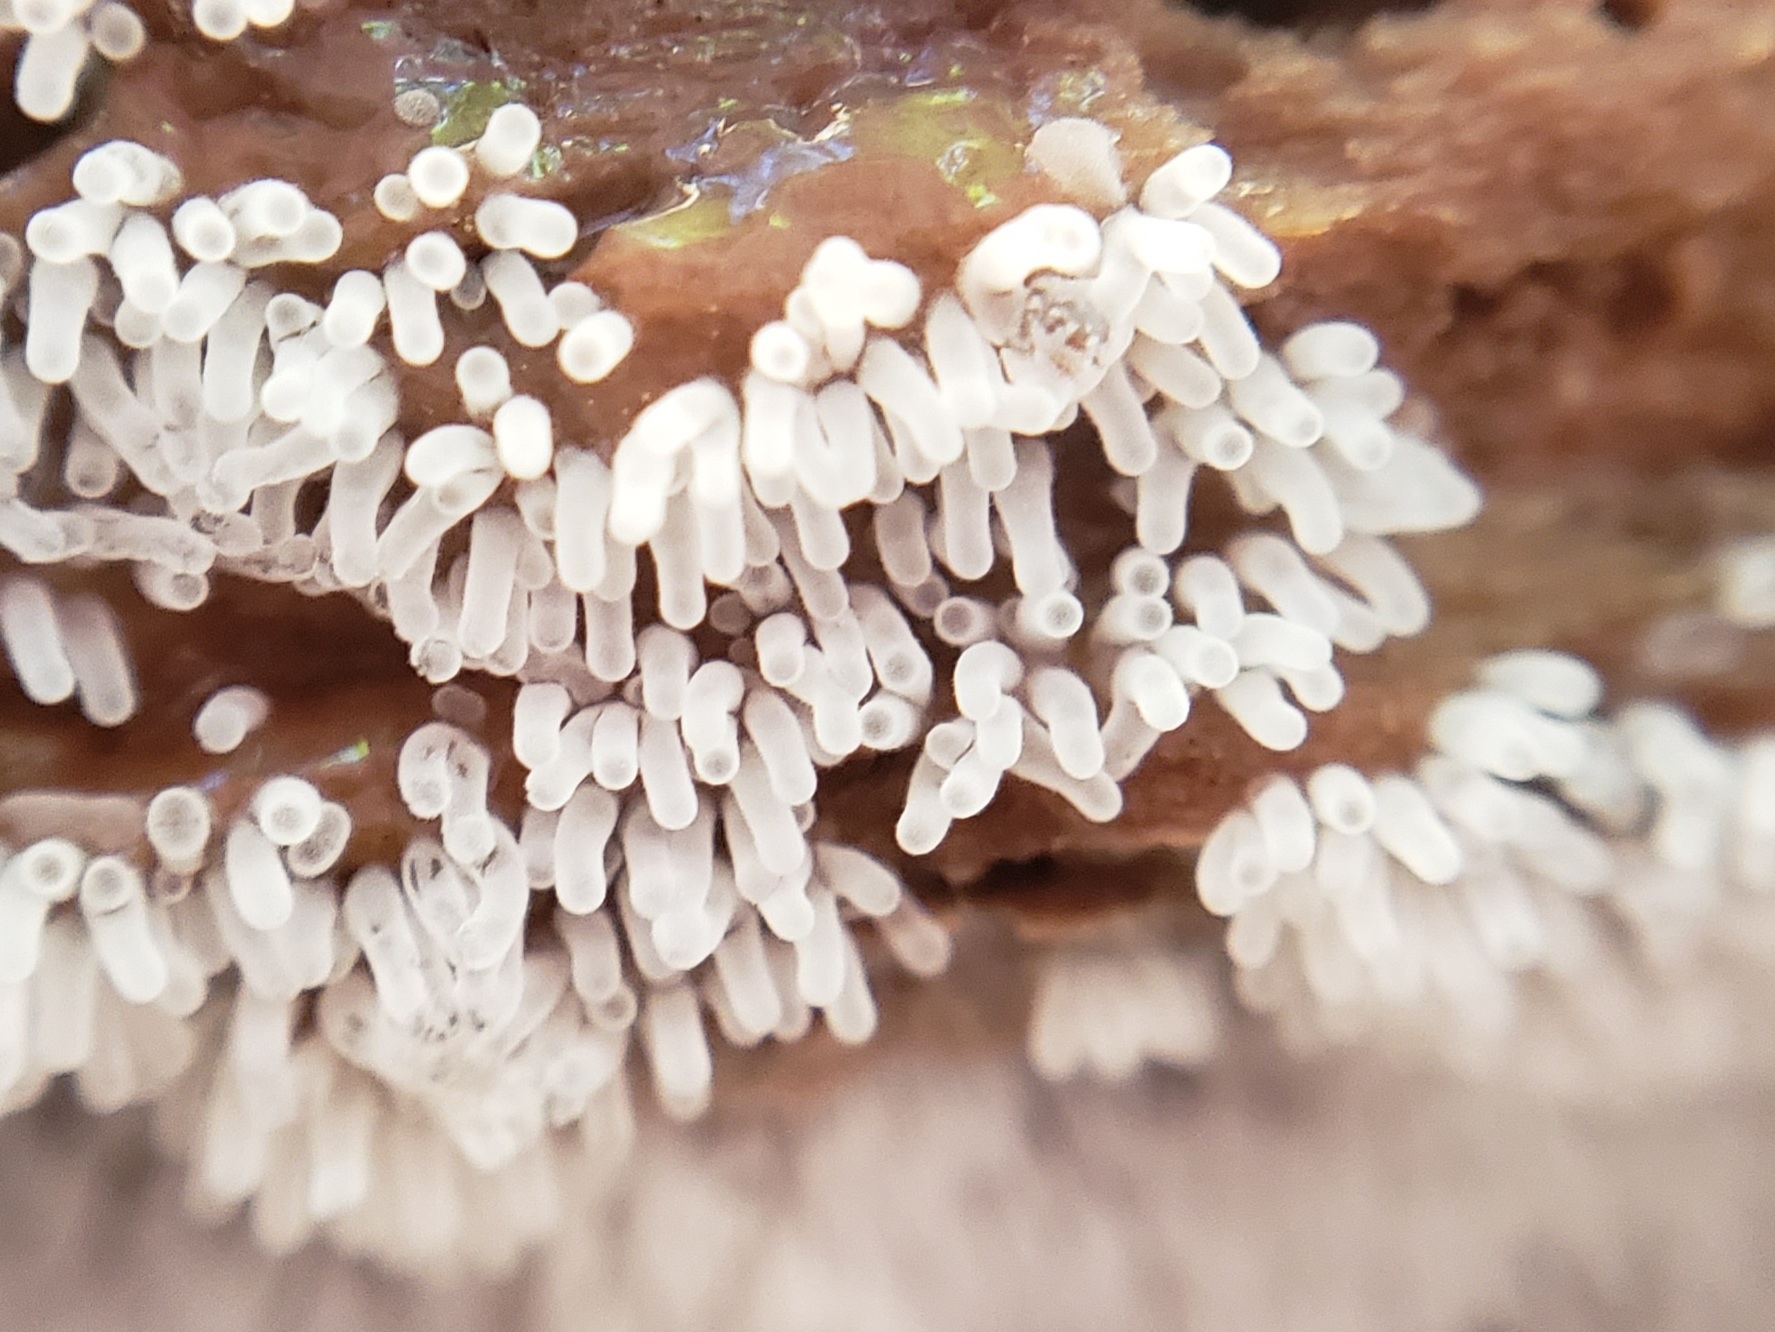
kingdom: Protozoa
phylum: Mycetozoa
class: Protosteliomycetes
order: Ceratiomyxales
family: Ceratiomyxaceae
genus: Ceratiomyxa
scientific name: Ceratiomyxa fruticulosa
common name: Honeycomb coral slime mold
